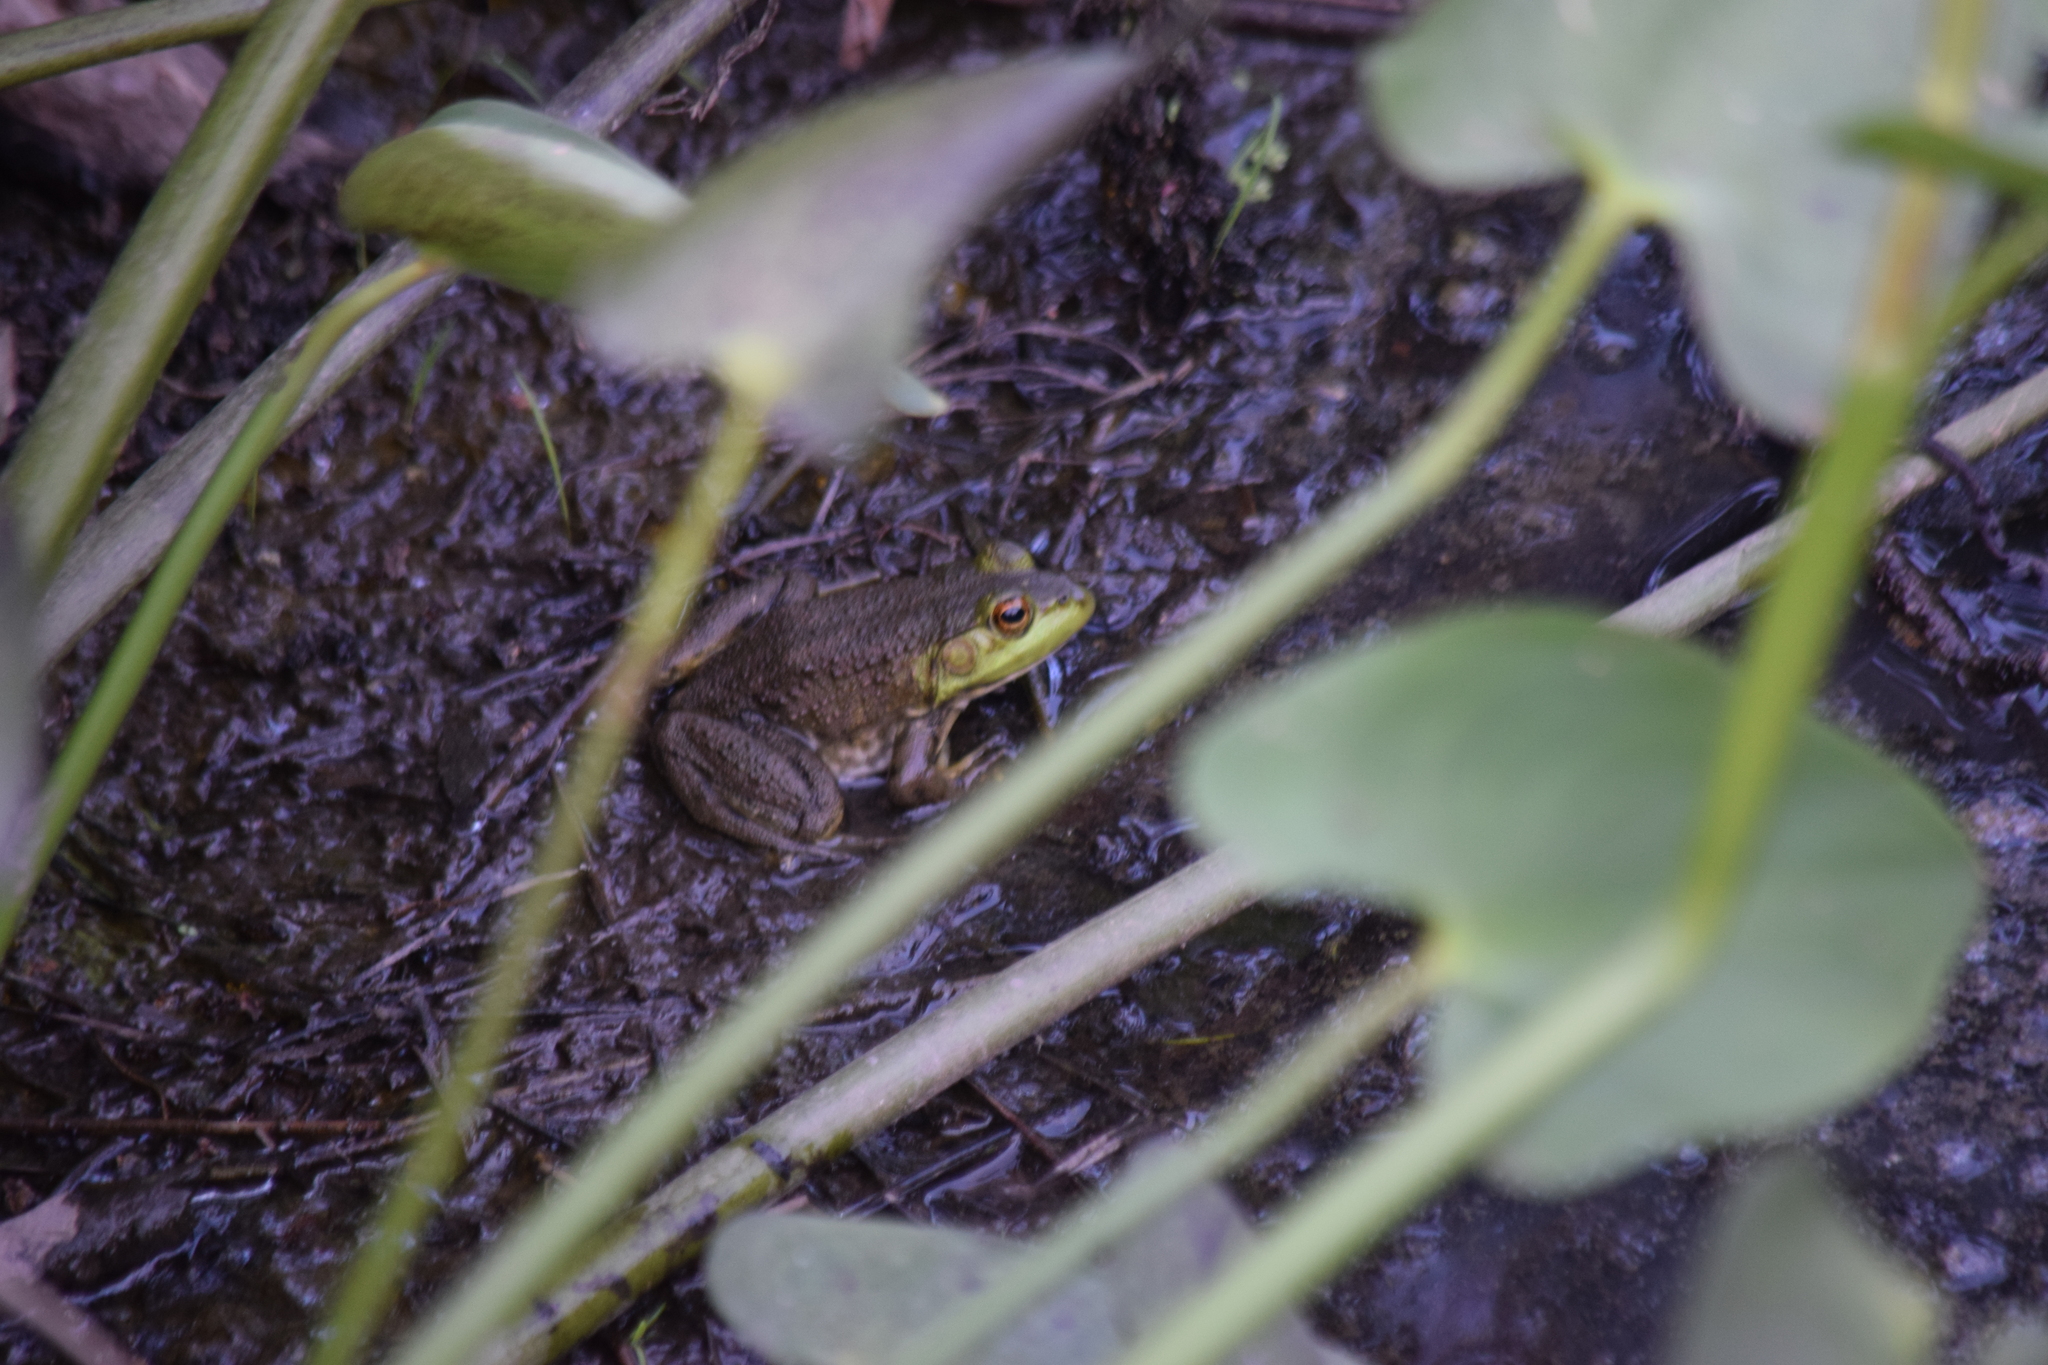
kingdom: Animalia
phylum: Chordata
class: Amphibia
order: Anura
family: Ranidae
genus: Lithobates
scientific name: Lithobates catesbeianus
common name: American bullfrog
